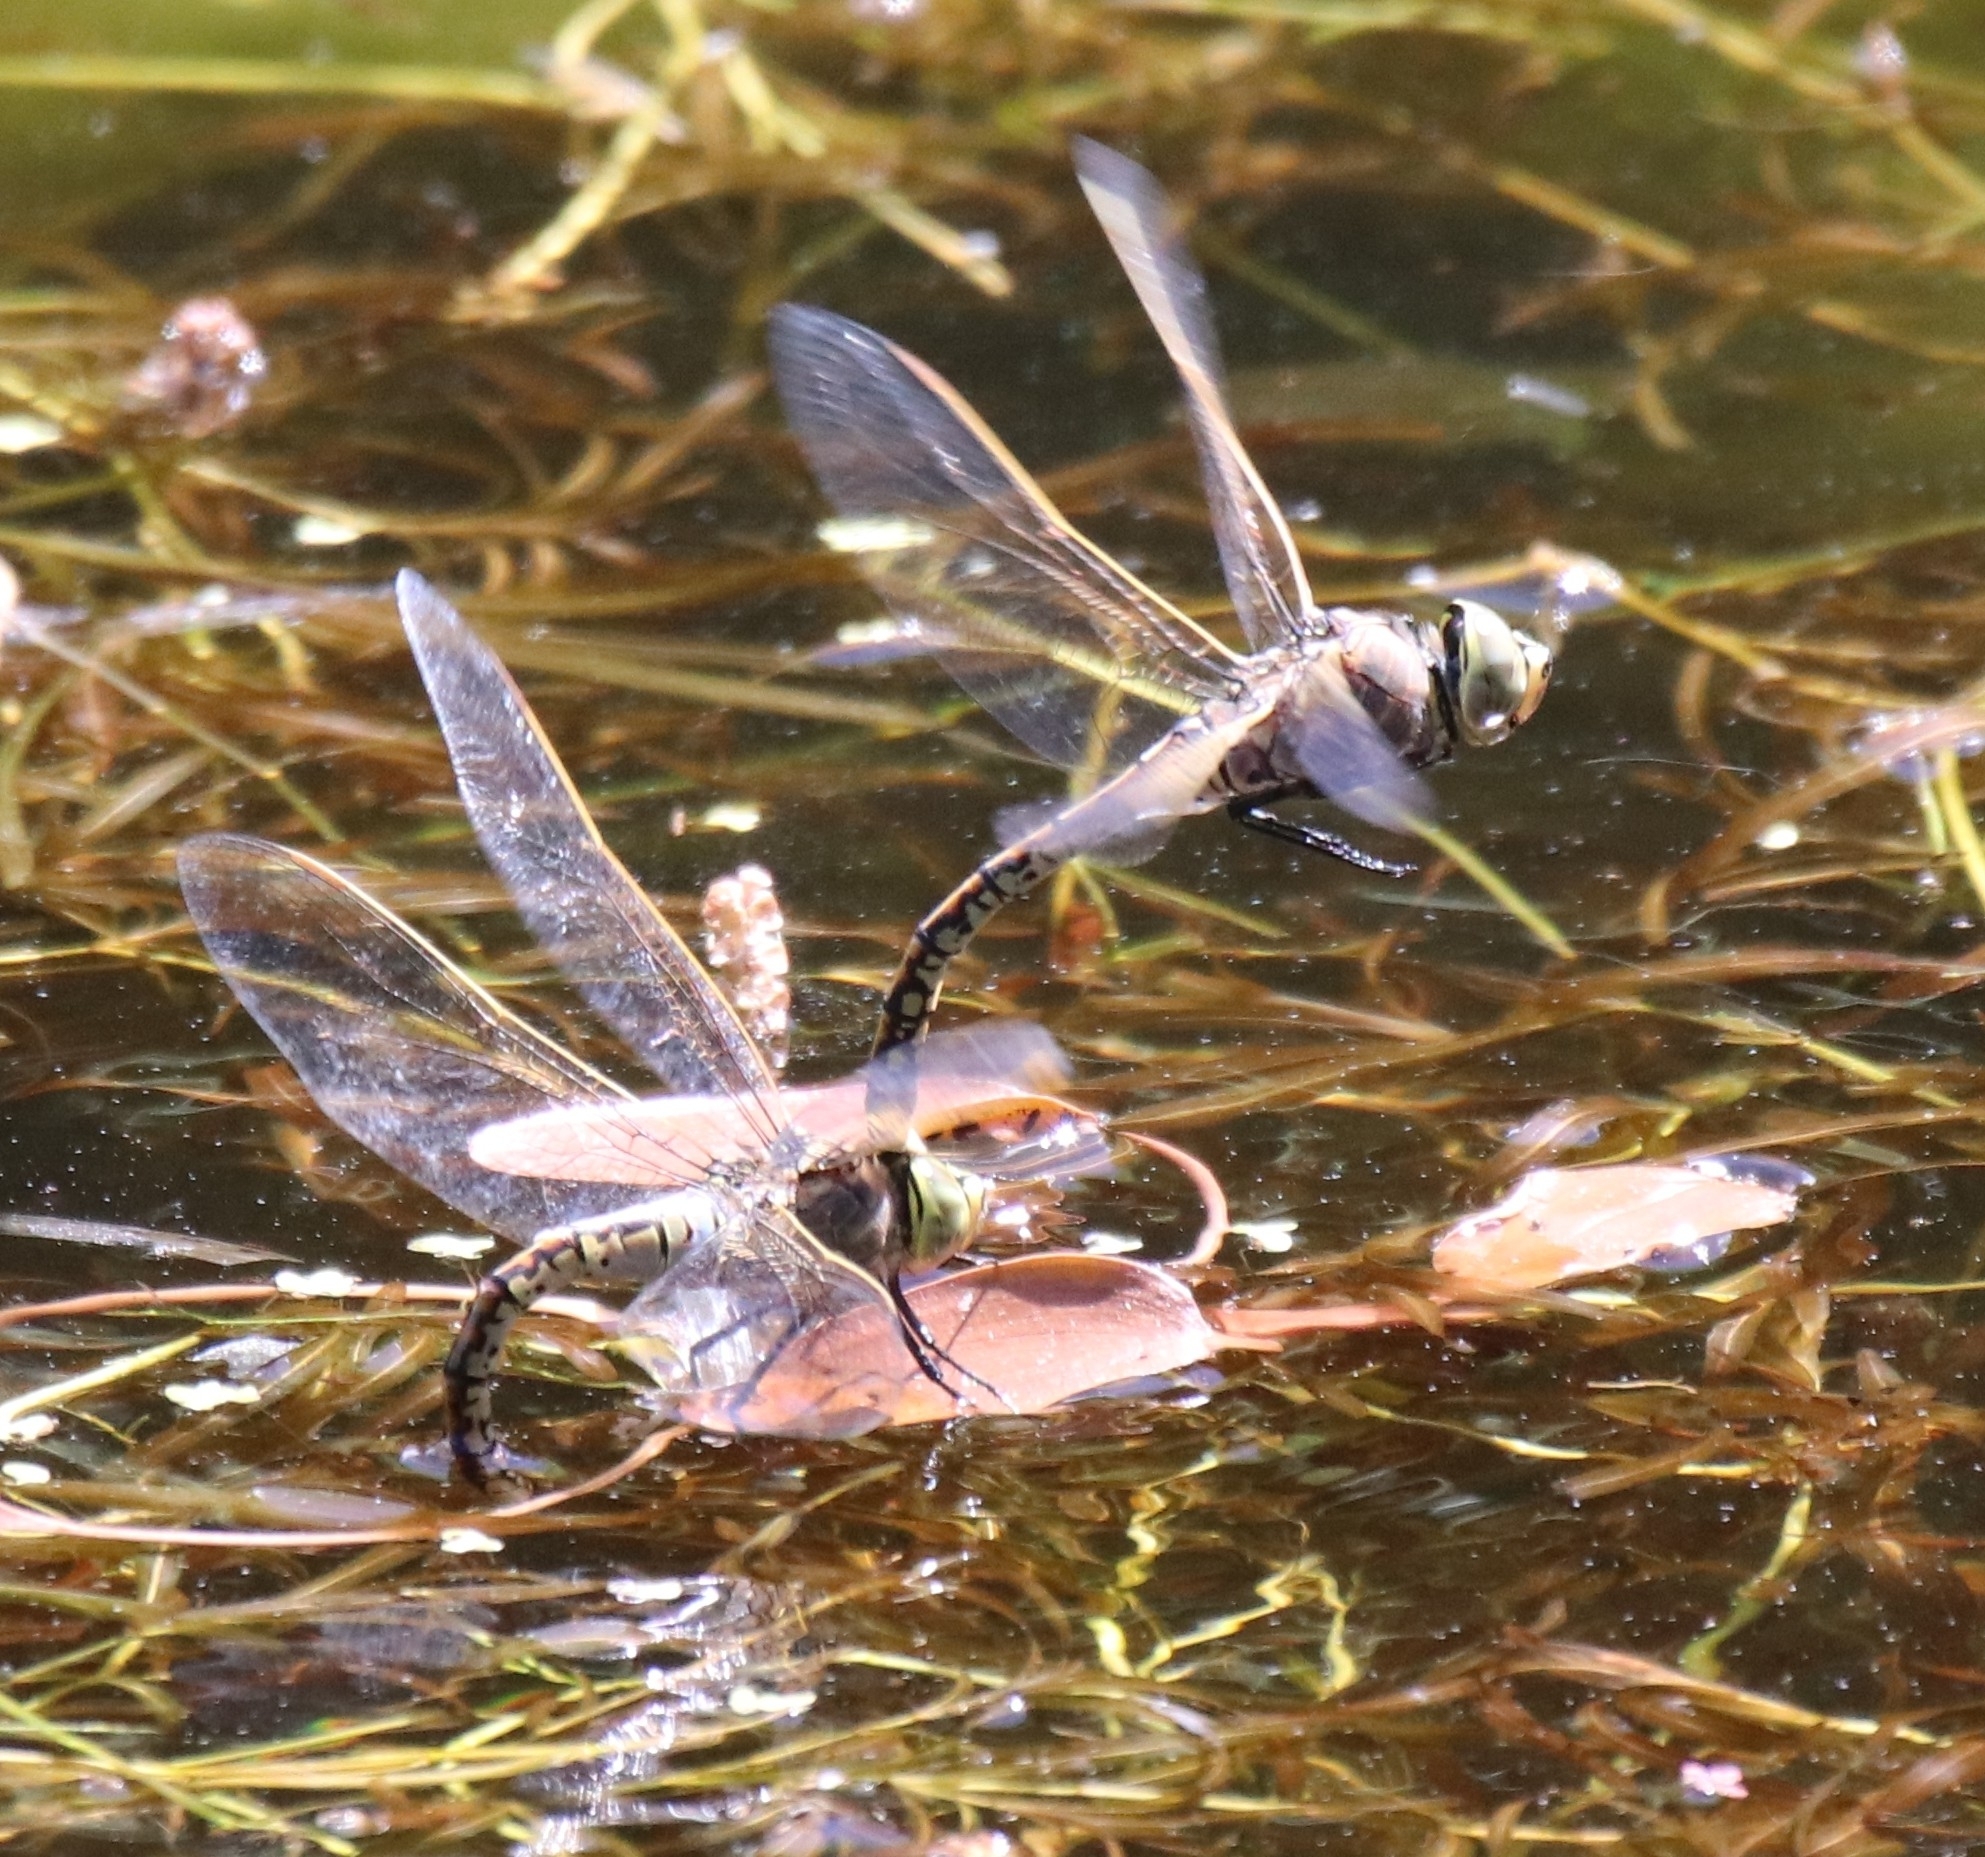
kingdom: Animalia
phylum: Arthropoda
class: Insecta
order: Odonata
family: Aeshnidae
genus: Anax
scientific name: Anax papuensis
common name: Australian emperor
